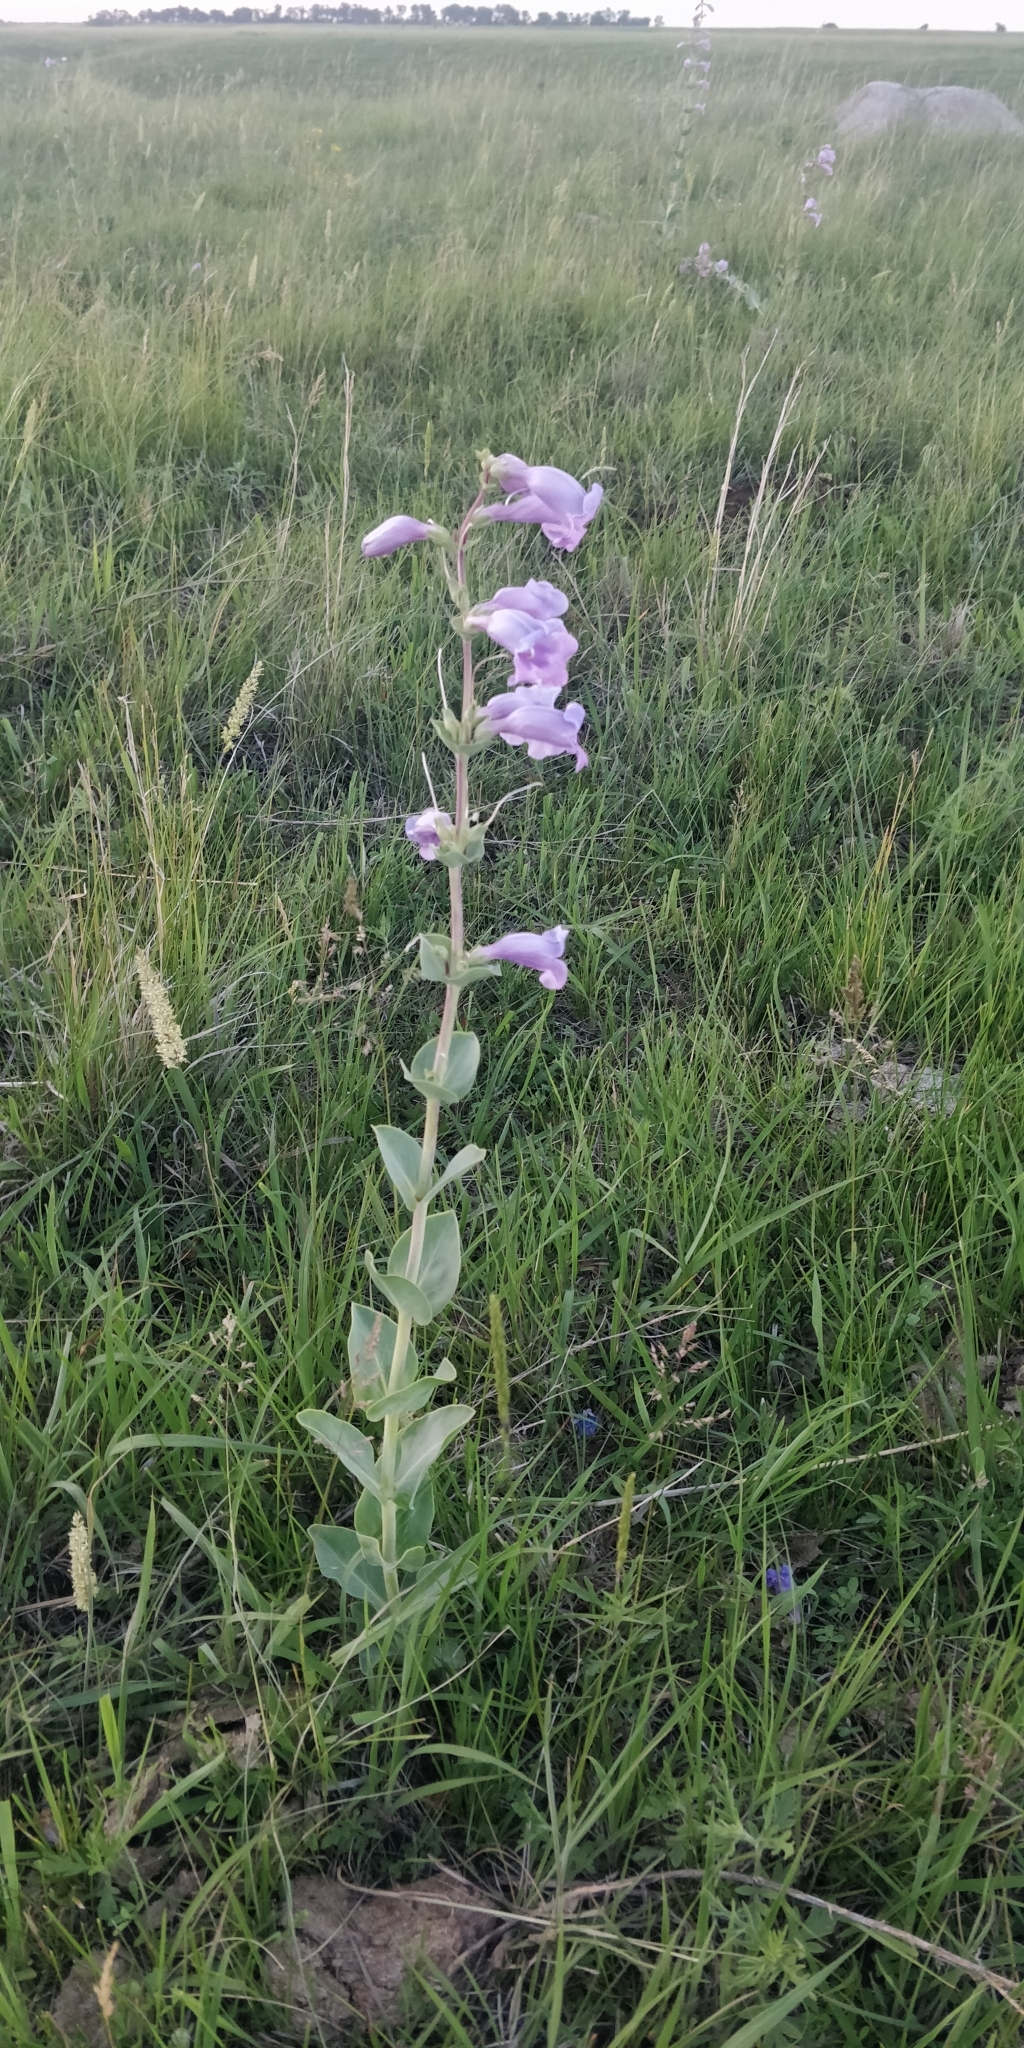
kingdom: Plantae
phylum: Tracheophyta
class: Magnoliopsida
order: Lamiales
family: Plantaginaceae
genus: Penstemon
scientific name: Penstemon
